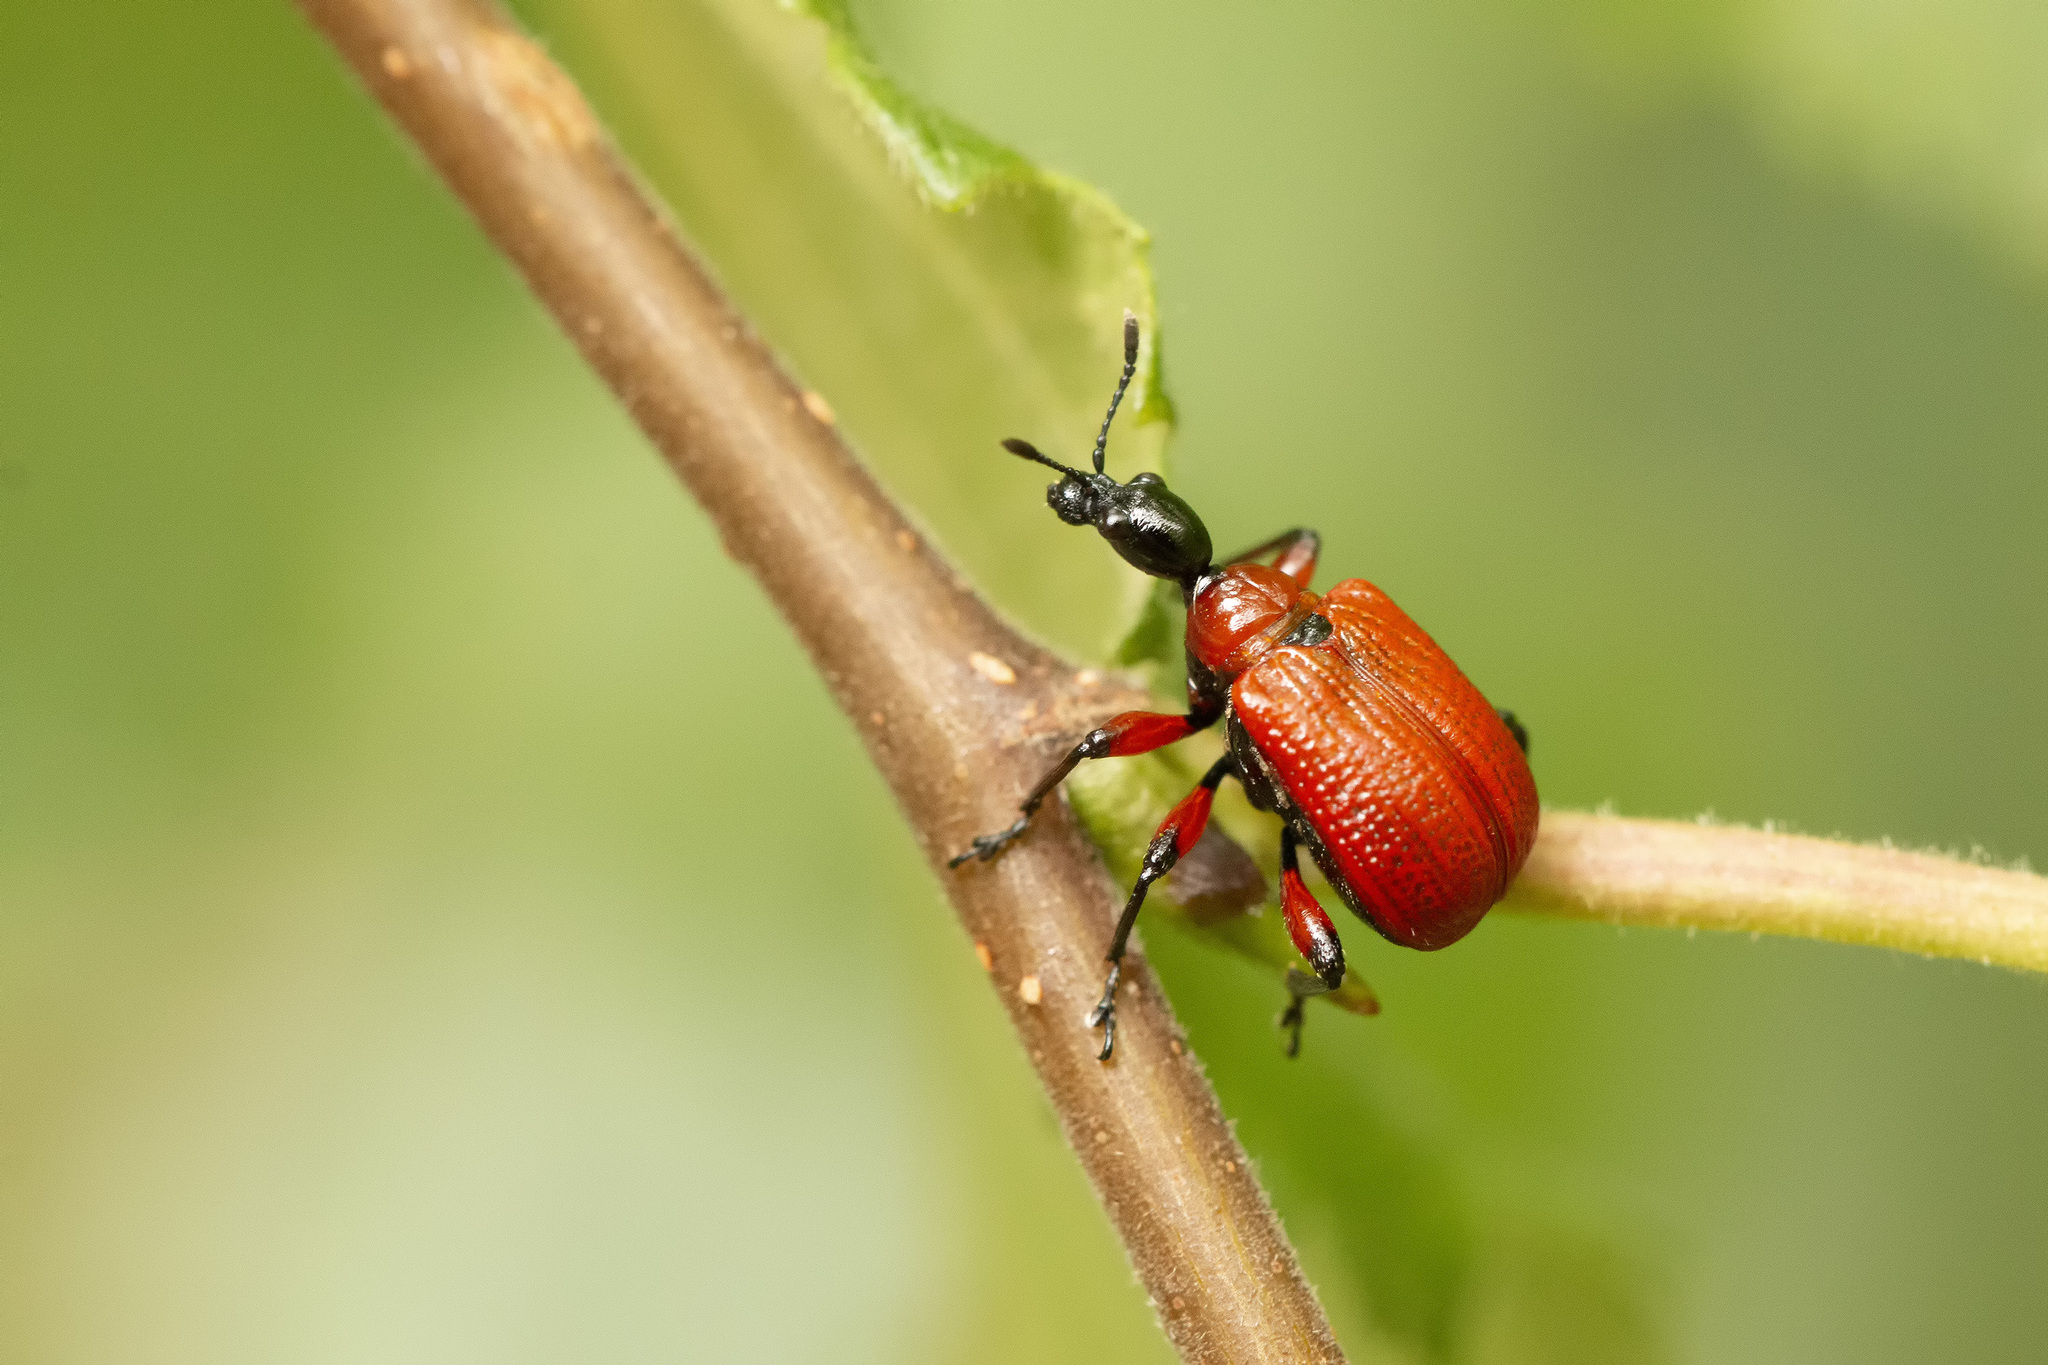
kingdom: Animalia
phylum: Arthropoda
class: Insecta
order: Coleoptera
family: Attelabidae
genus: Apoderus
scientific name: Apoderus coryli
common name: Hazel leaf roller
